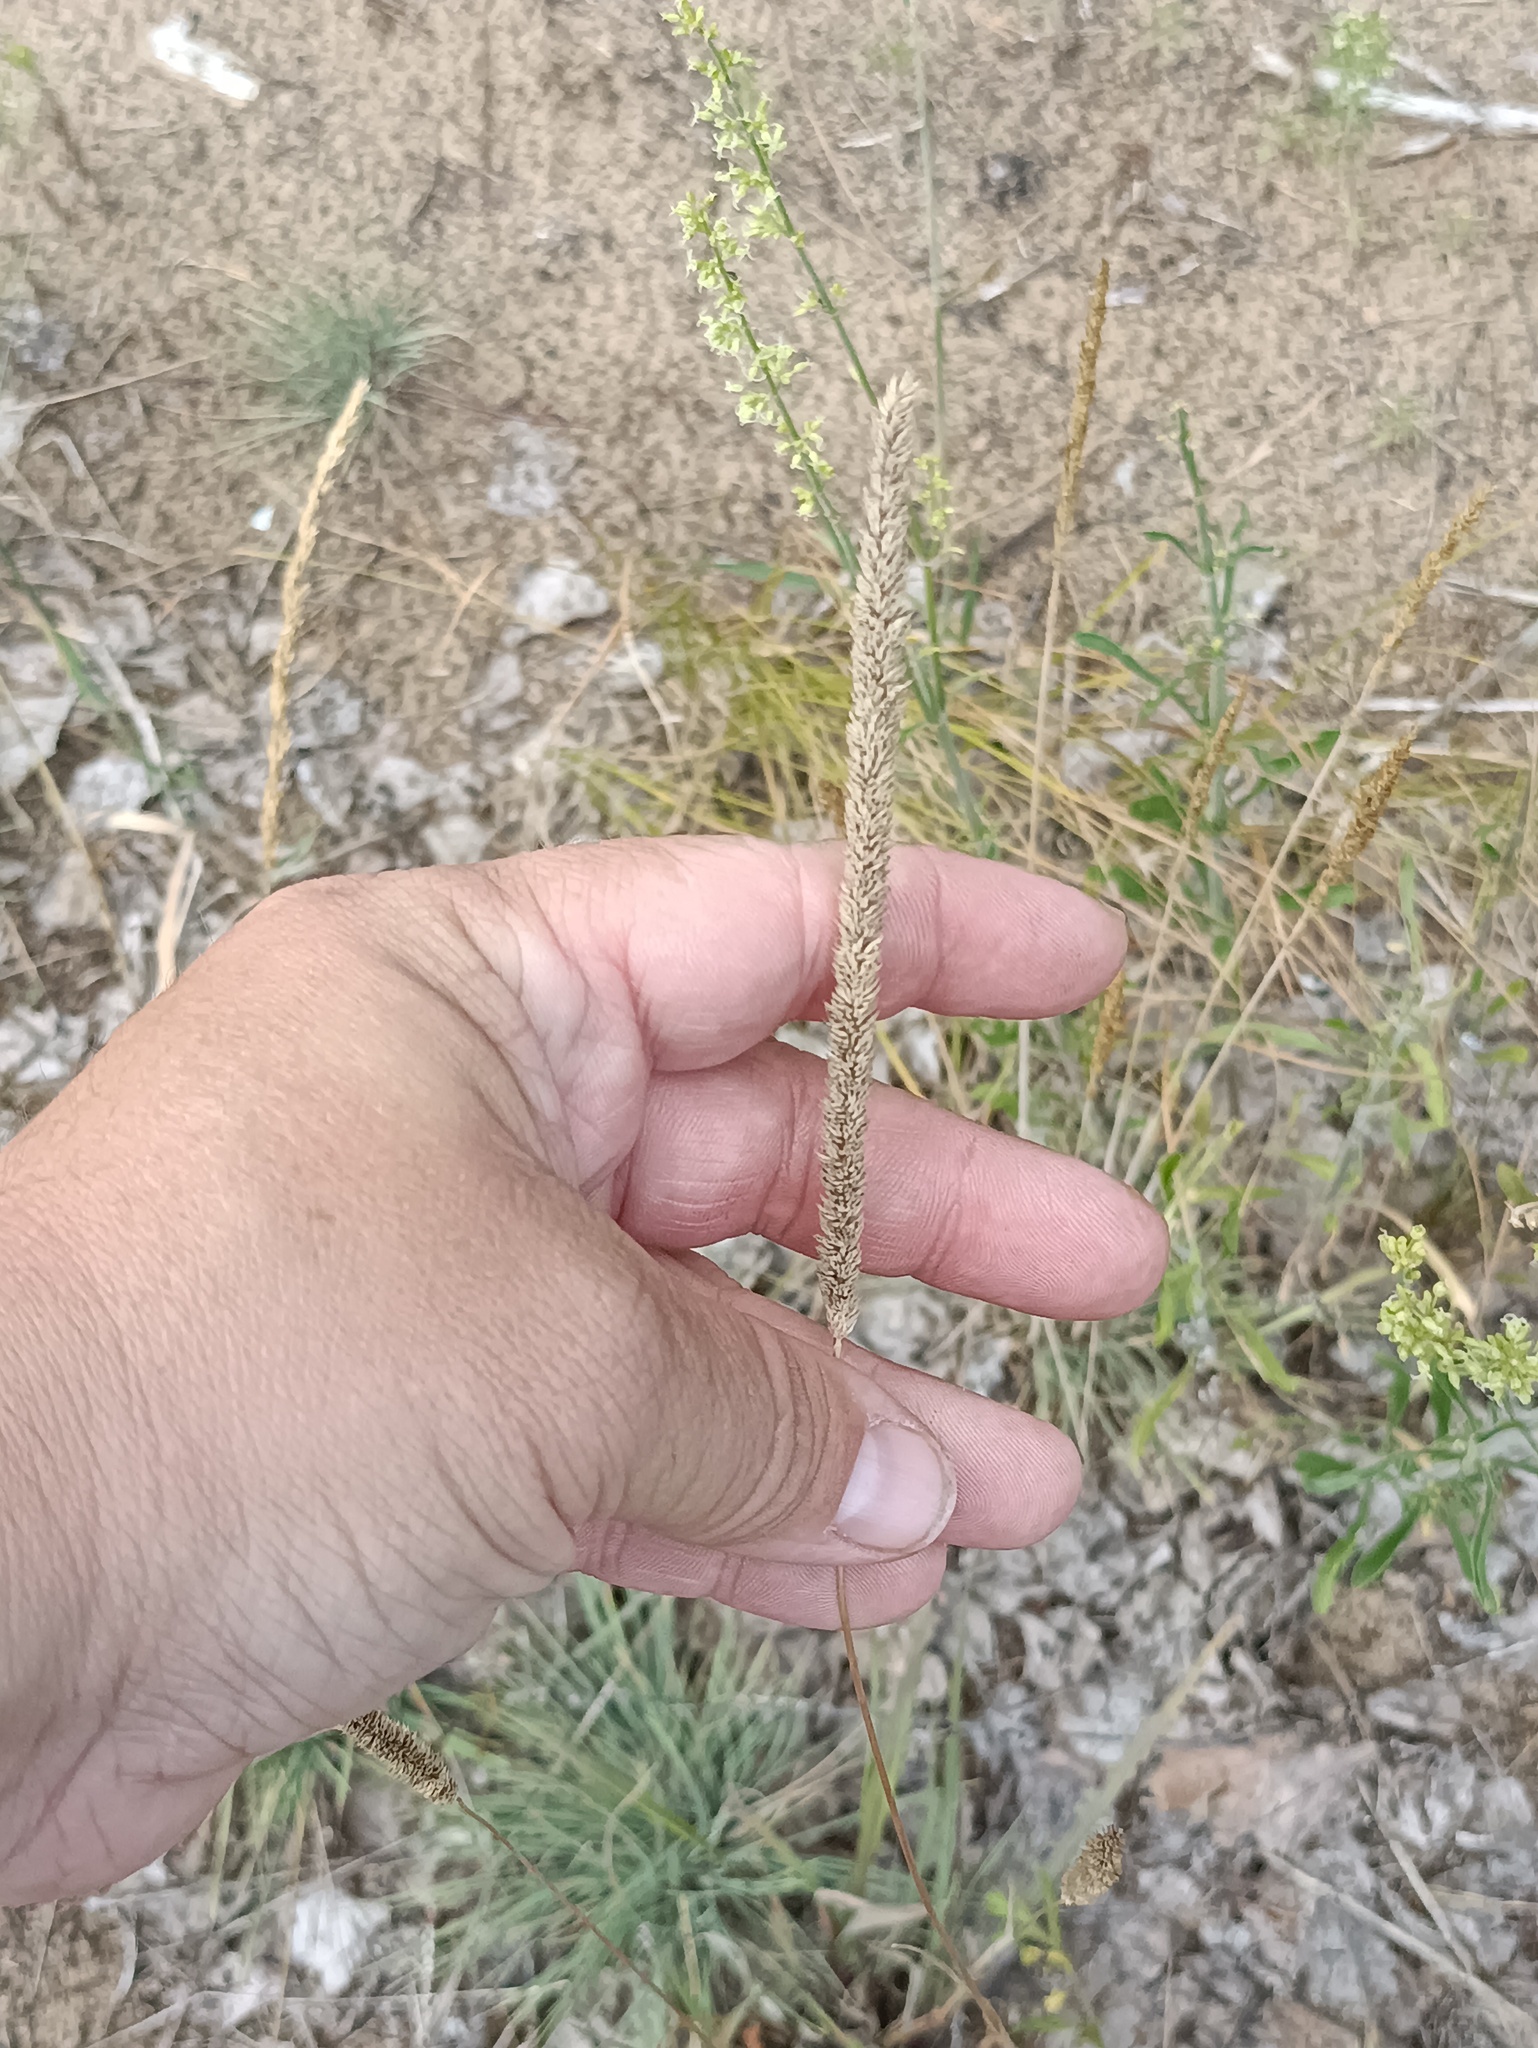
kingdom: Plantae
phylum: Tracheophyta
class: Liliopsida
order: Poales
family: Poaceae
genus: Phleum
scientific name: Phleum phleoides
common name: Purple-stem cat's-tail
